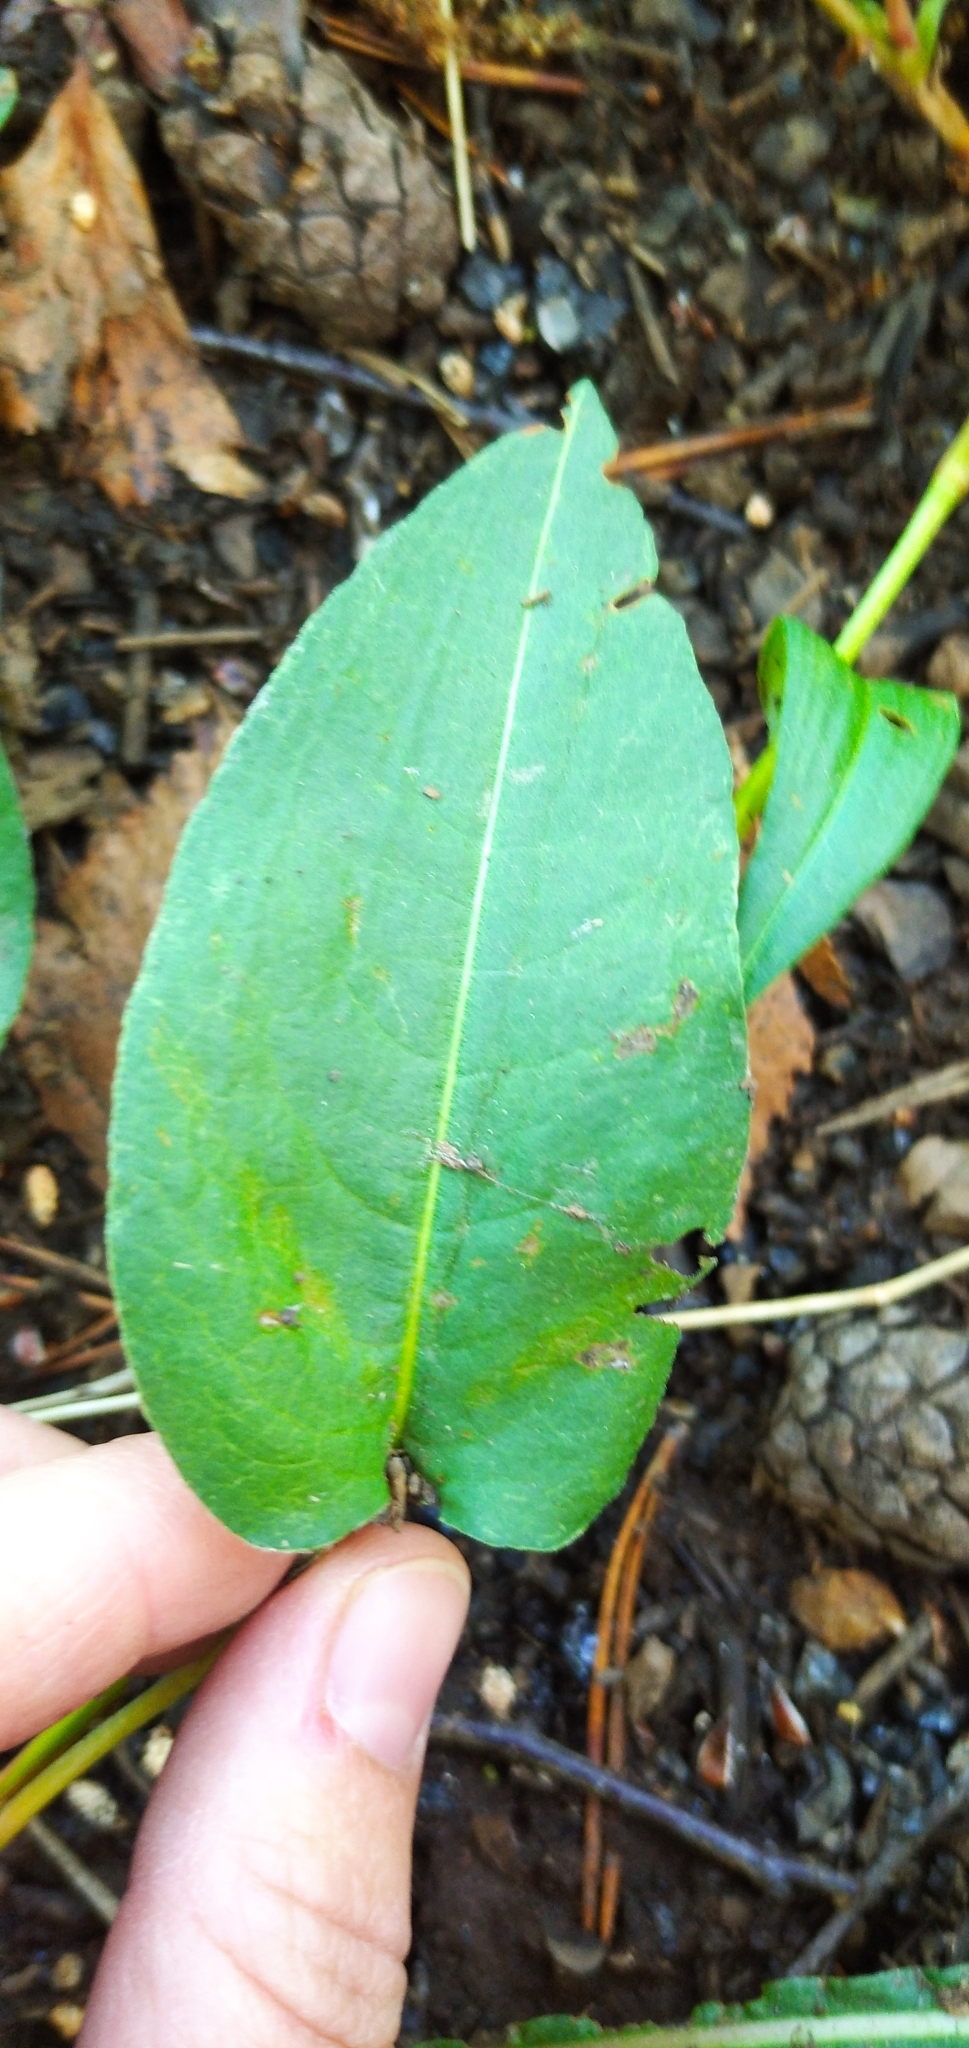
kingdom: Plantae
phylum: Tracheophyta
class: Magnoliopsida
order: Caryophyllales
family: Polygonaceae
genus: Bistorta
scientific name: Bistorta officinalis
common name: Common bistort
